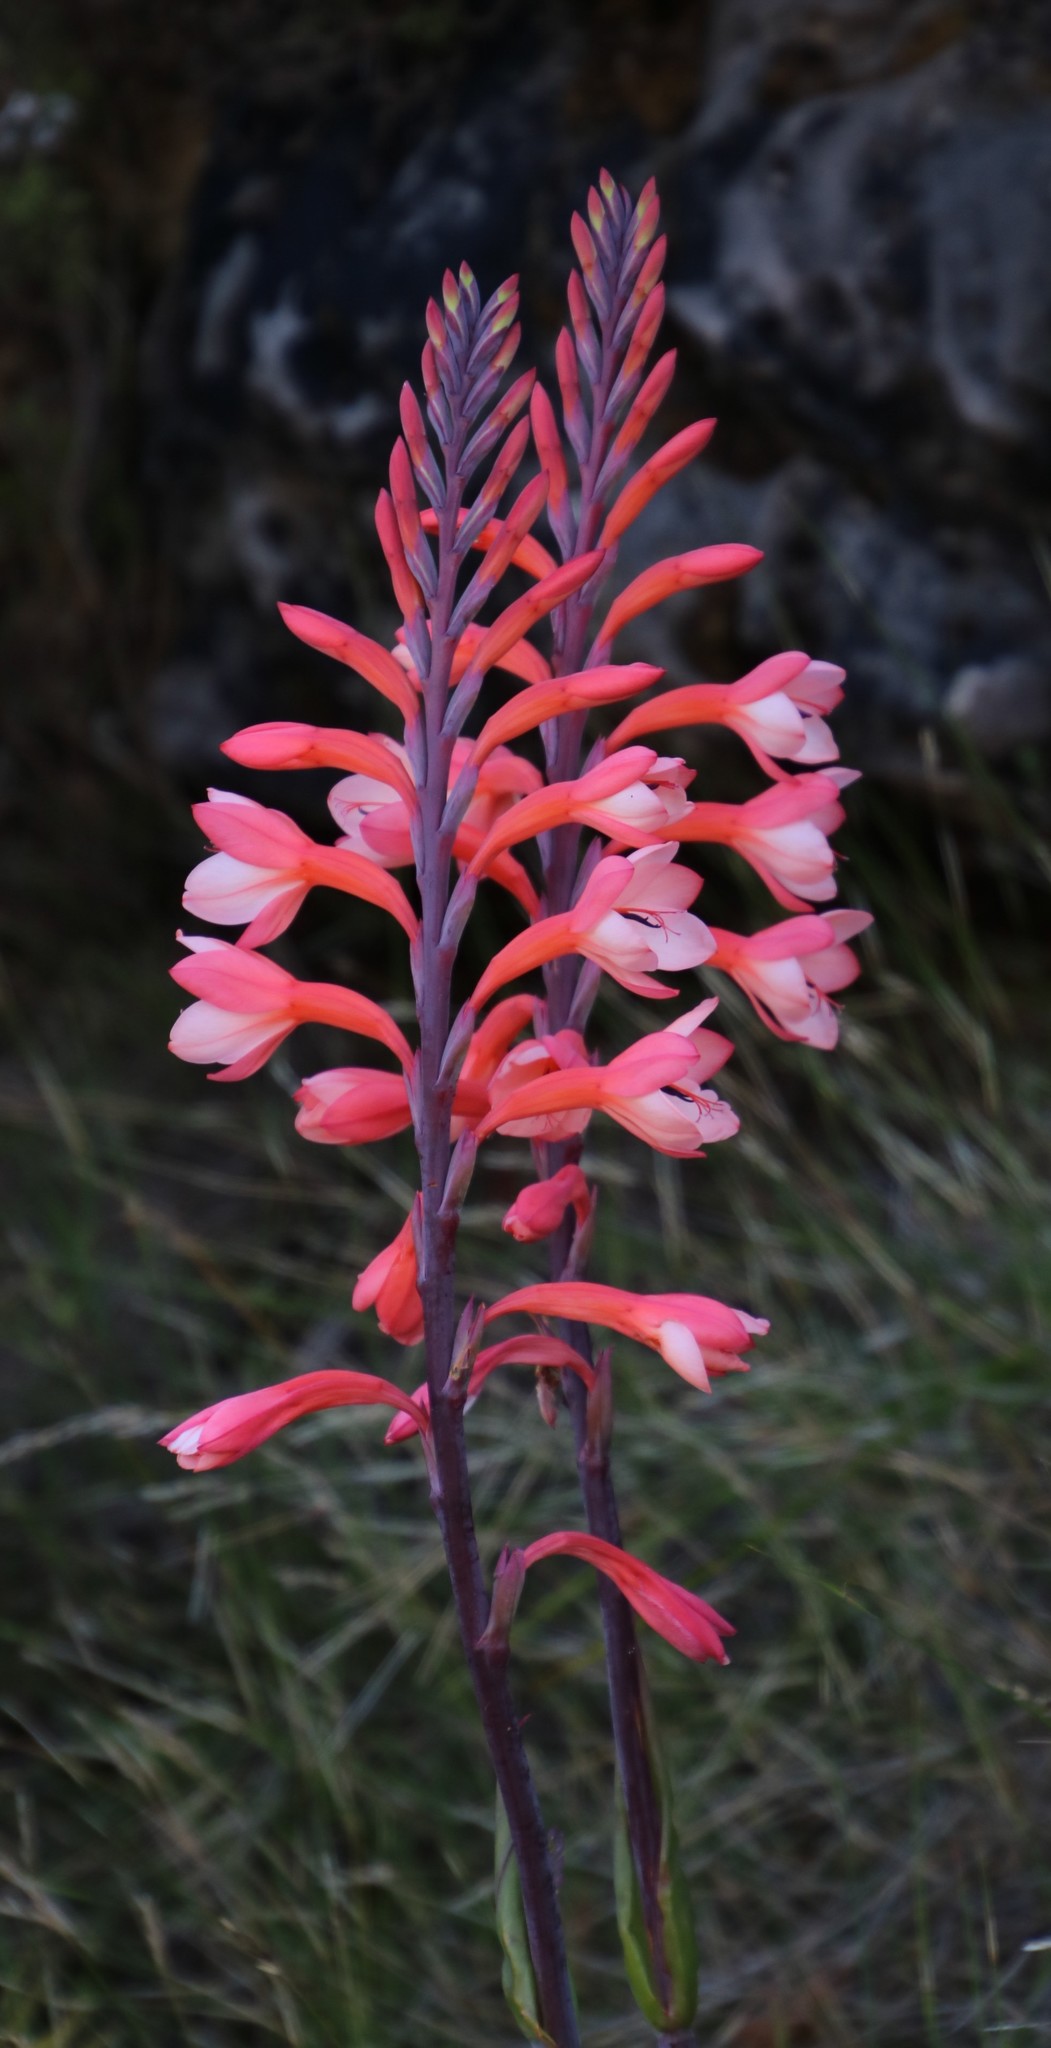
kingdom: Plantae
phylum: Tracheophyta
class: Liliopsida
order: Asparagales
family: Iridaceae
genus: Watsonia
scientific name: Watsonia tabularis
